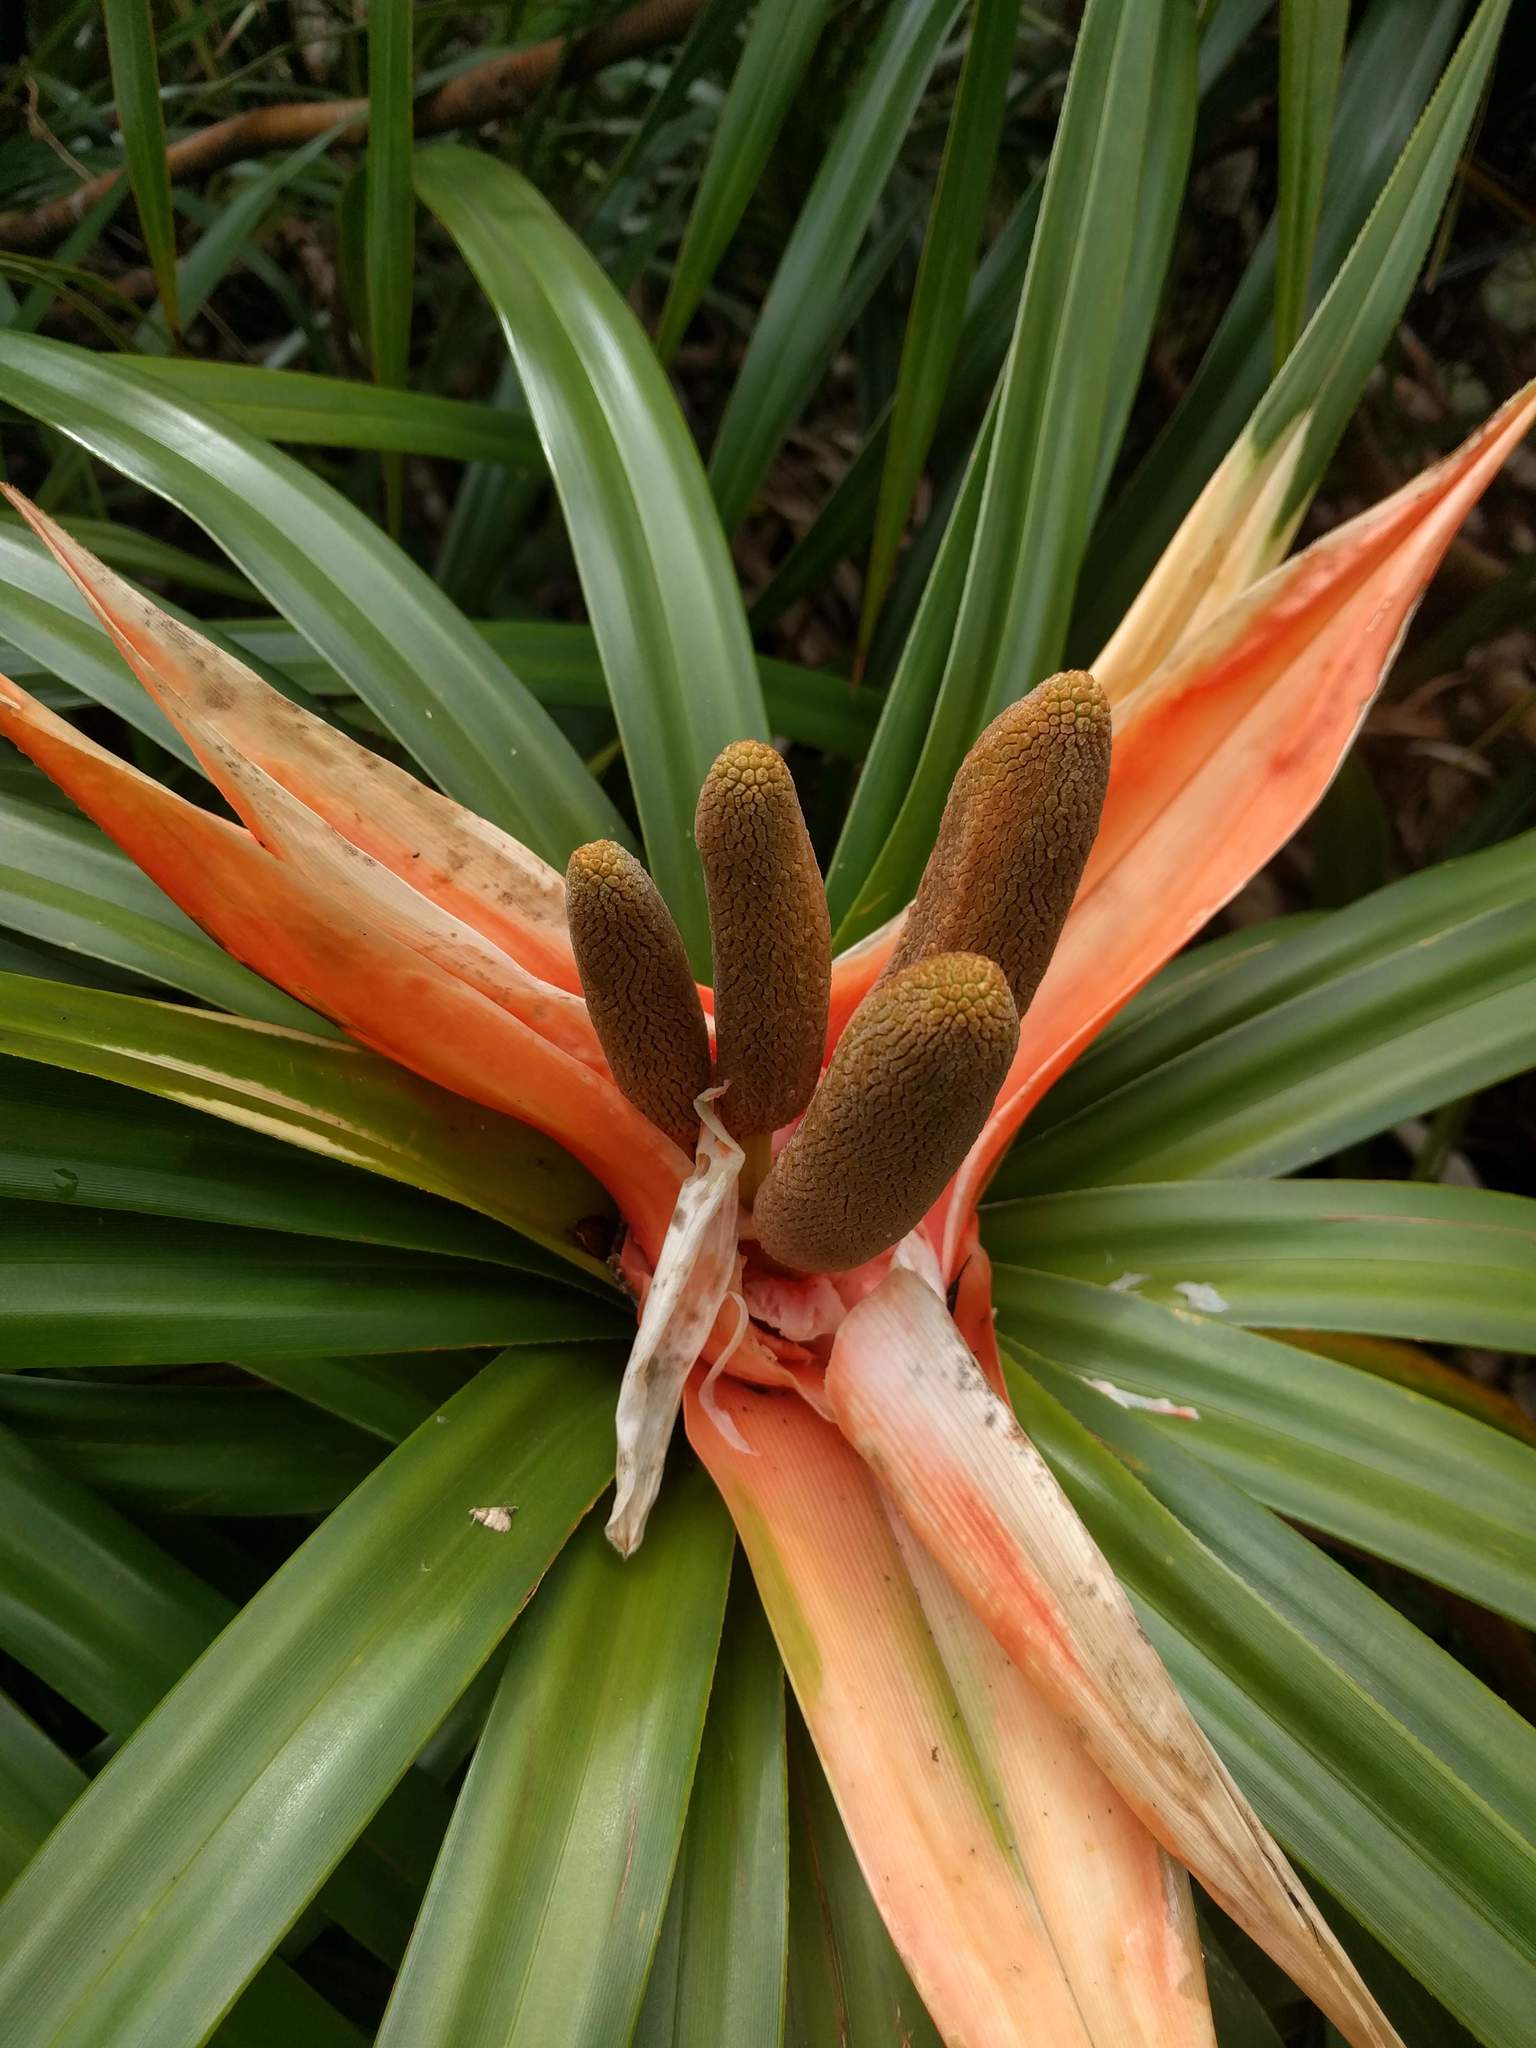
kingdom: Plantae
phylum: Tracheophyta
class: Liliopsida
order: Pandanales
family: Pandanaceae
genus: Freycinetia
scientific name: Freycinetia arborea
